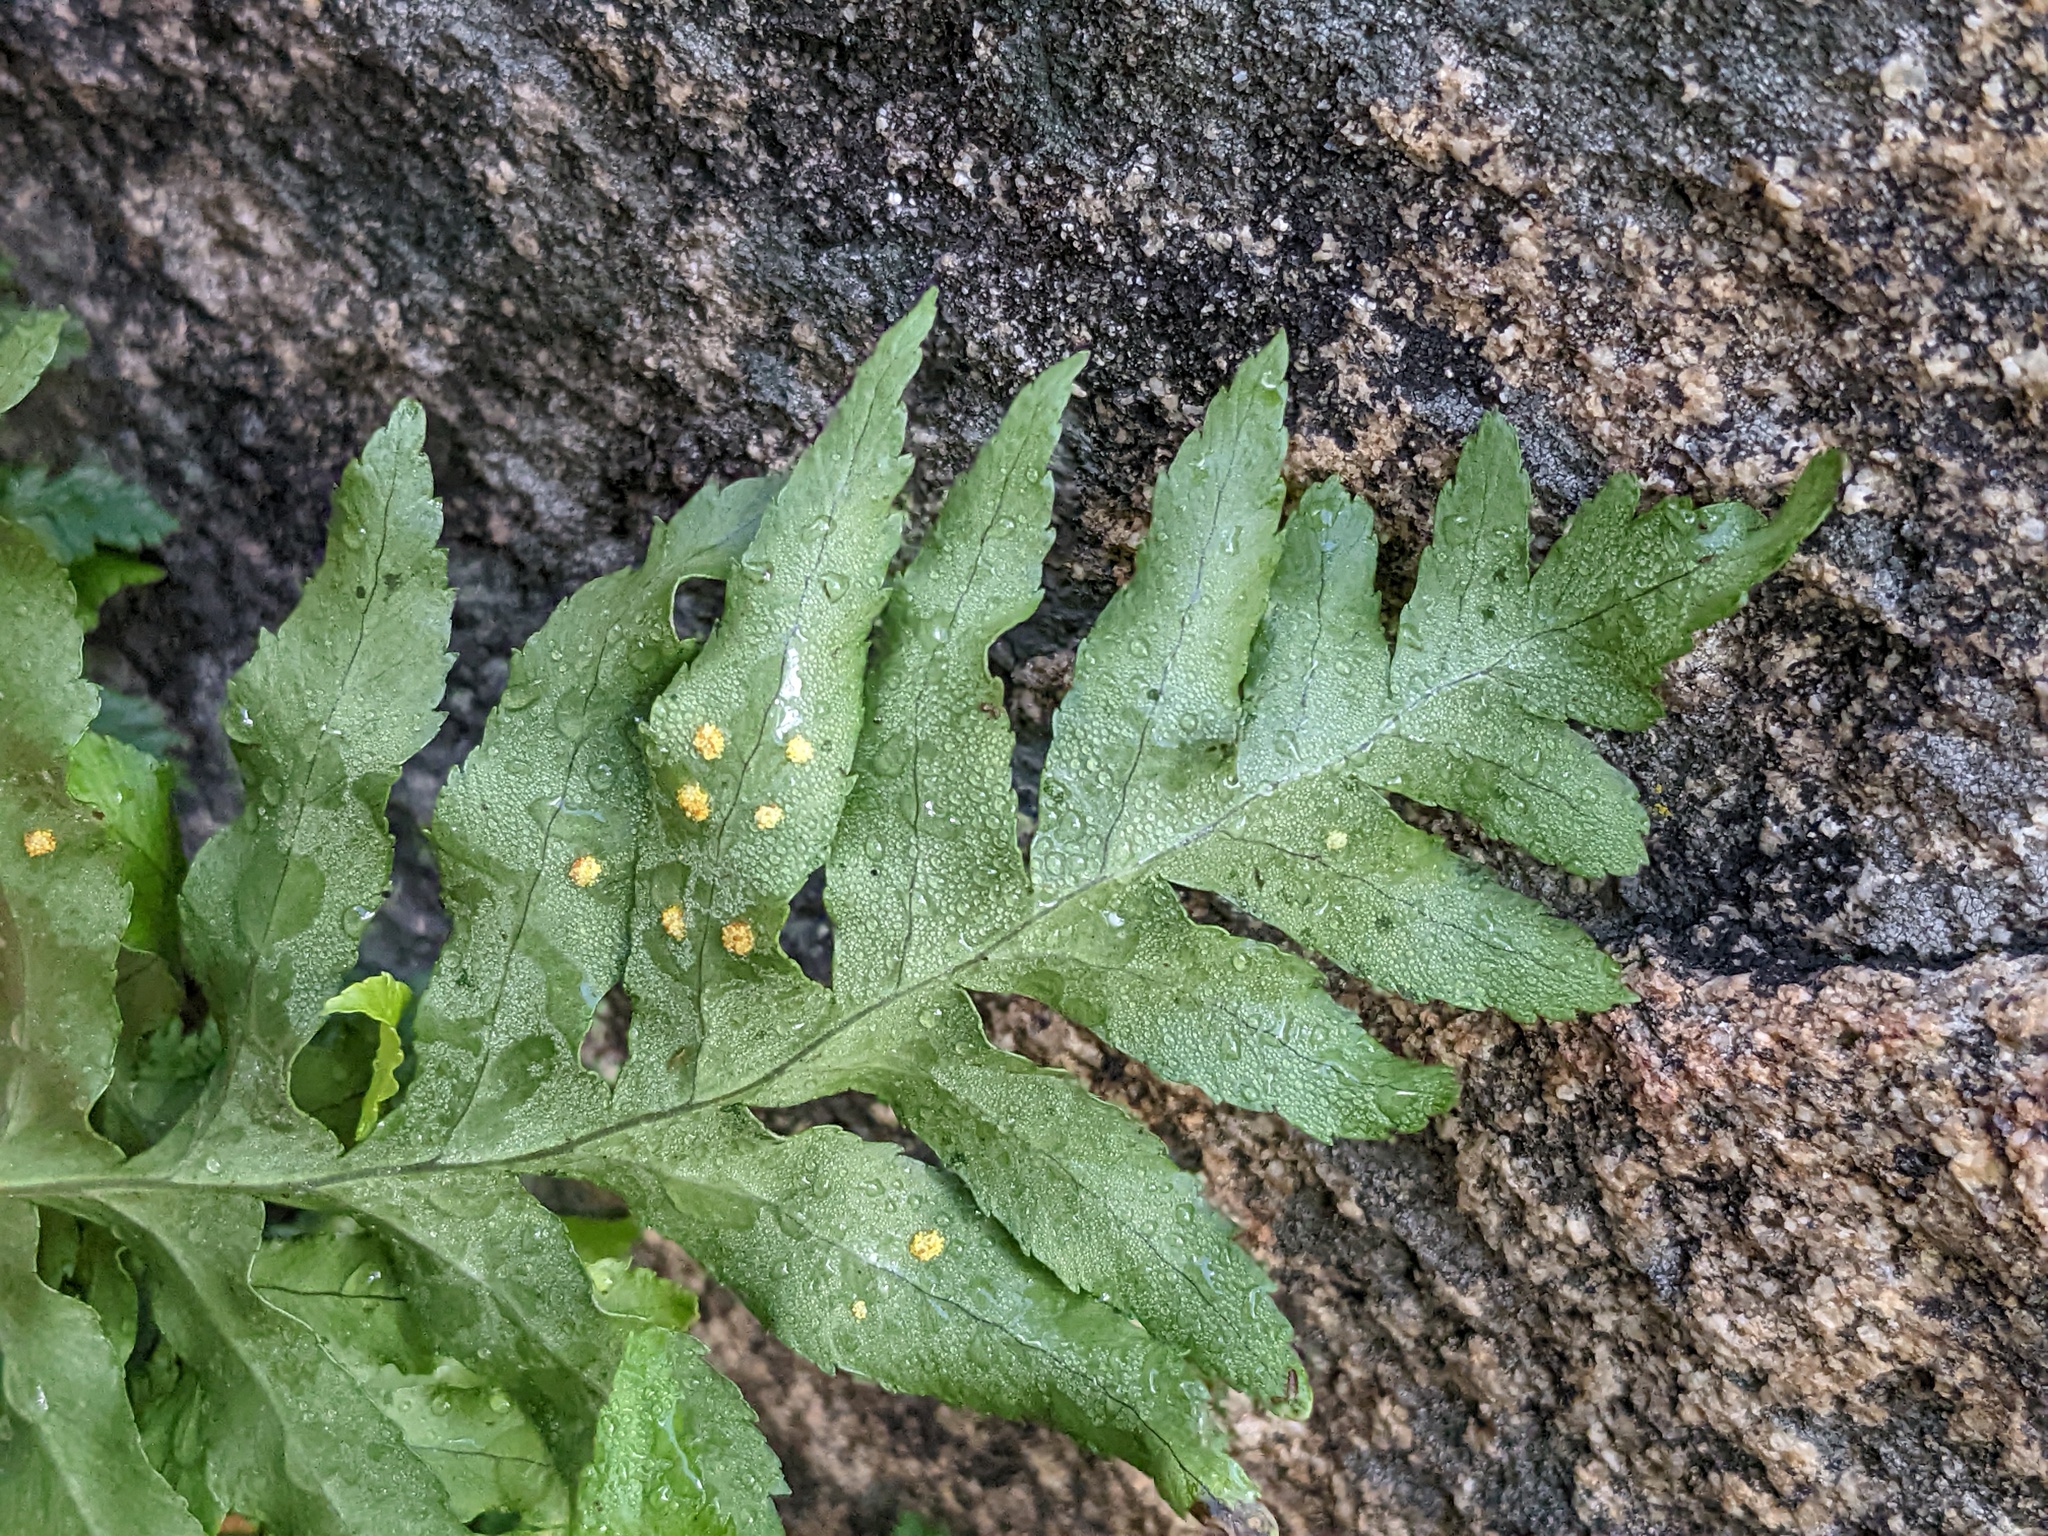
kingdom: Plantae
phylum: Tracheophyta
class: Polypodiopsida
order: Polypodiales
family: Polypodiaceae
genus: Polypodium
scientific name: Polypodium californicum
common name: California polypody
